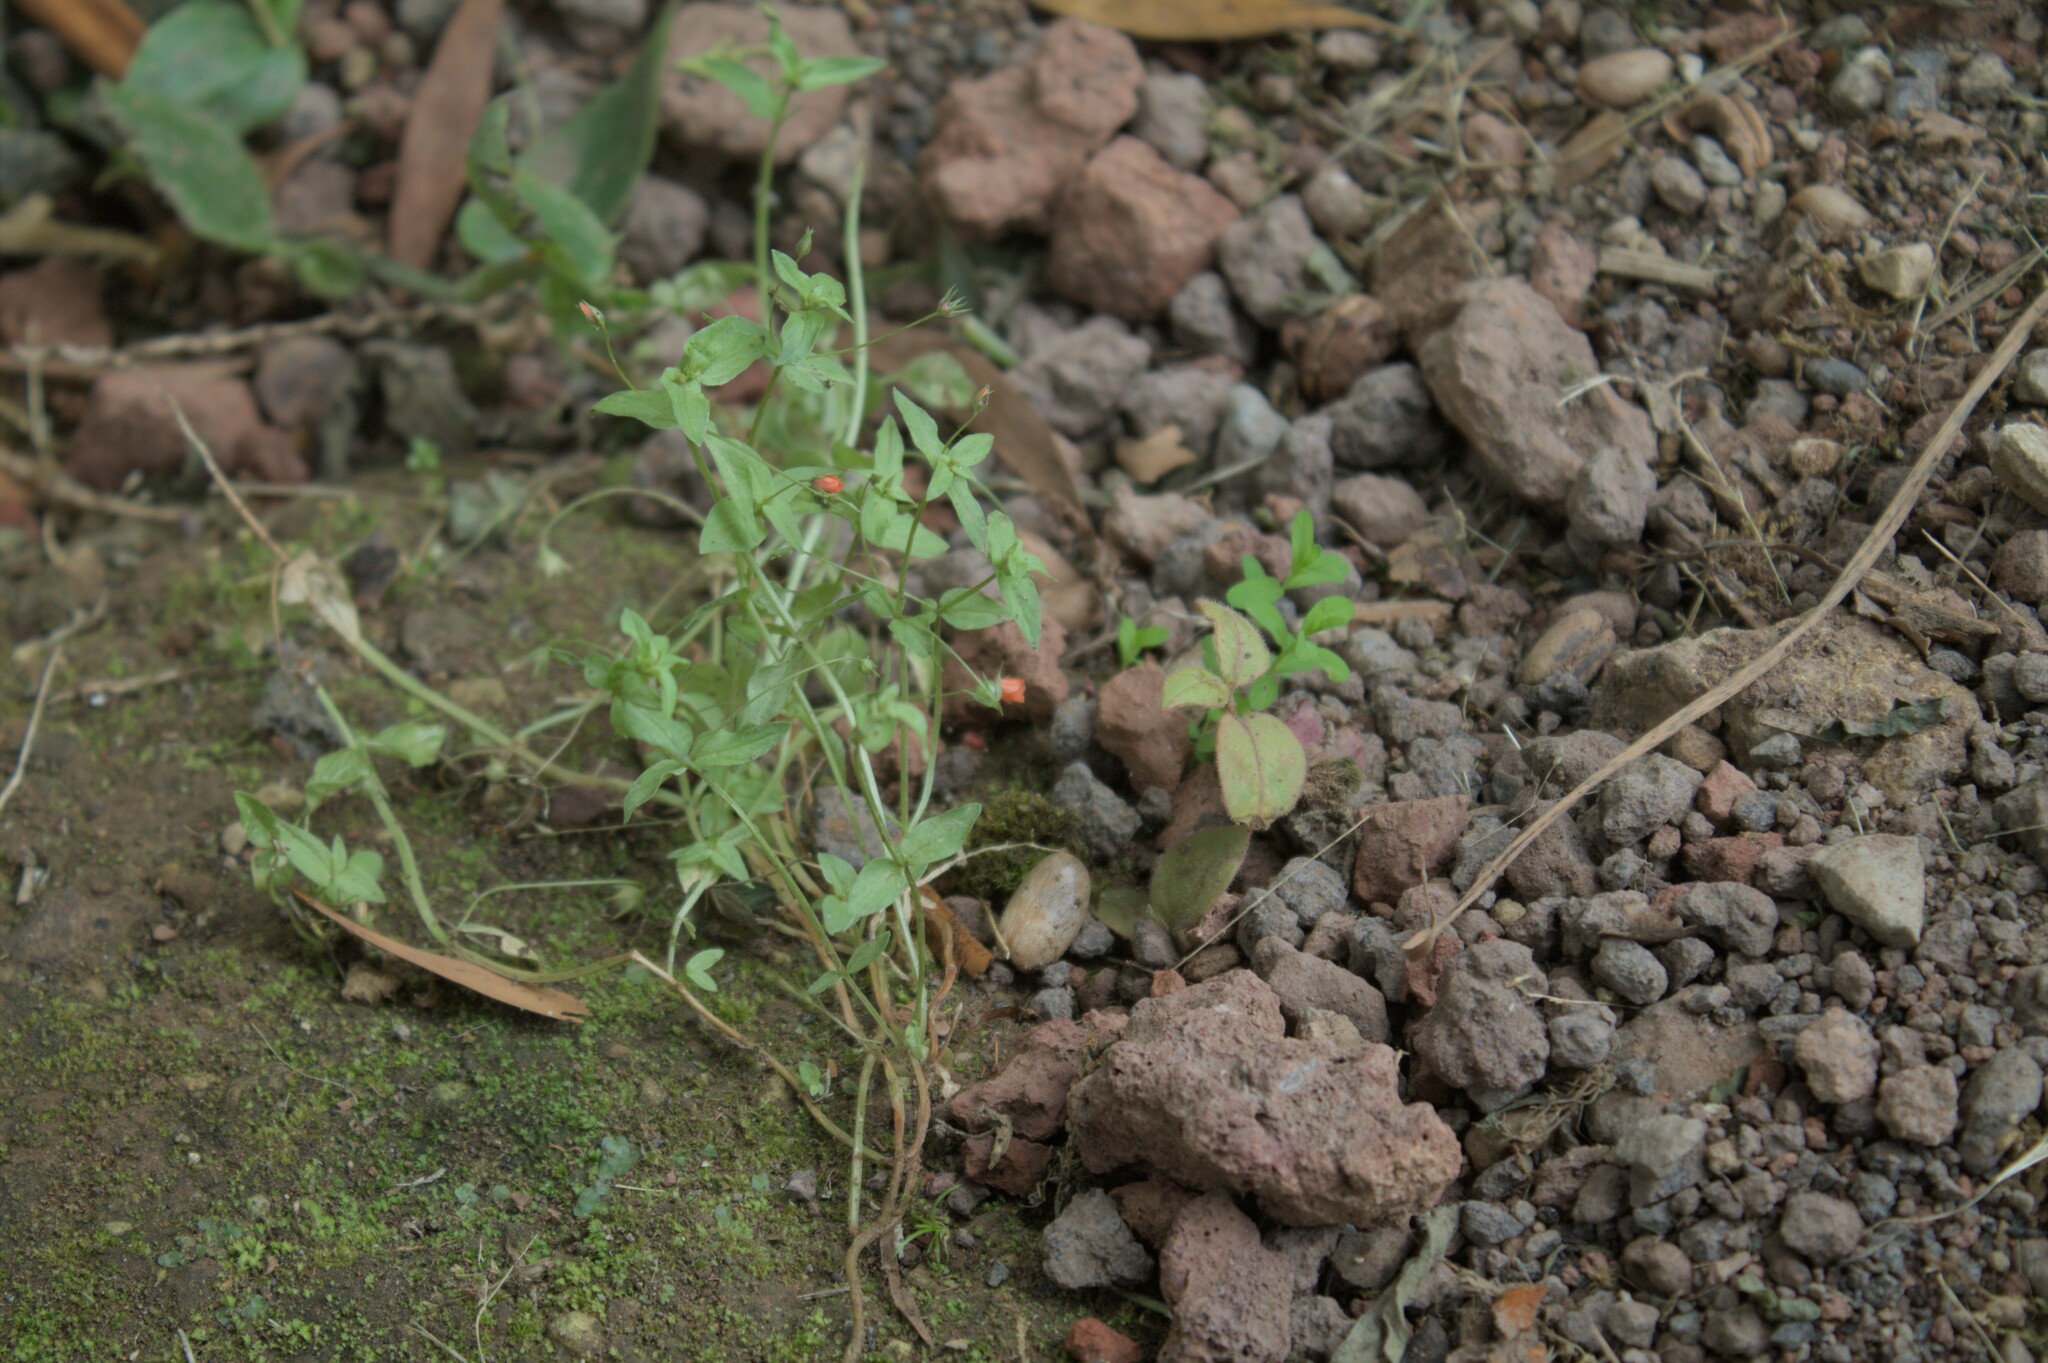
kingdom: Plantae
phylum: Tracheophyta
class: Magnoliopsida
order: Ericales
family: Primulaceae
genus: Lysimachia
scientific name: Lysimachia arvensis
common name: Scarlet pimpernel
